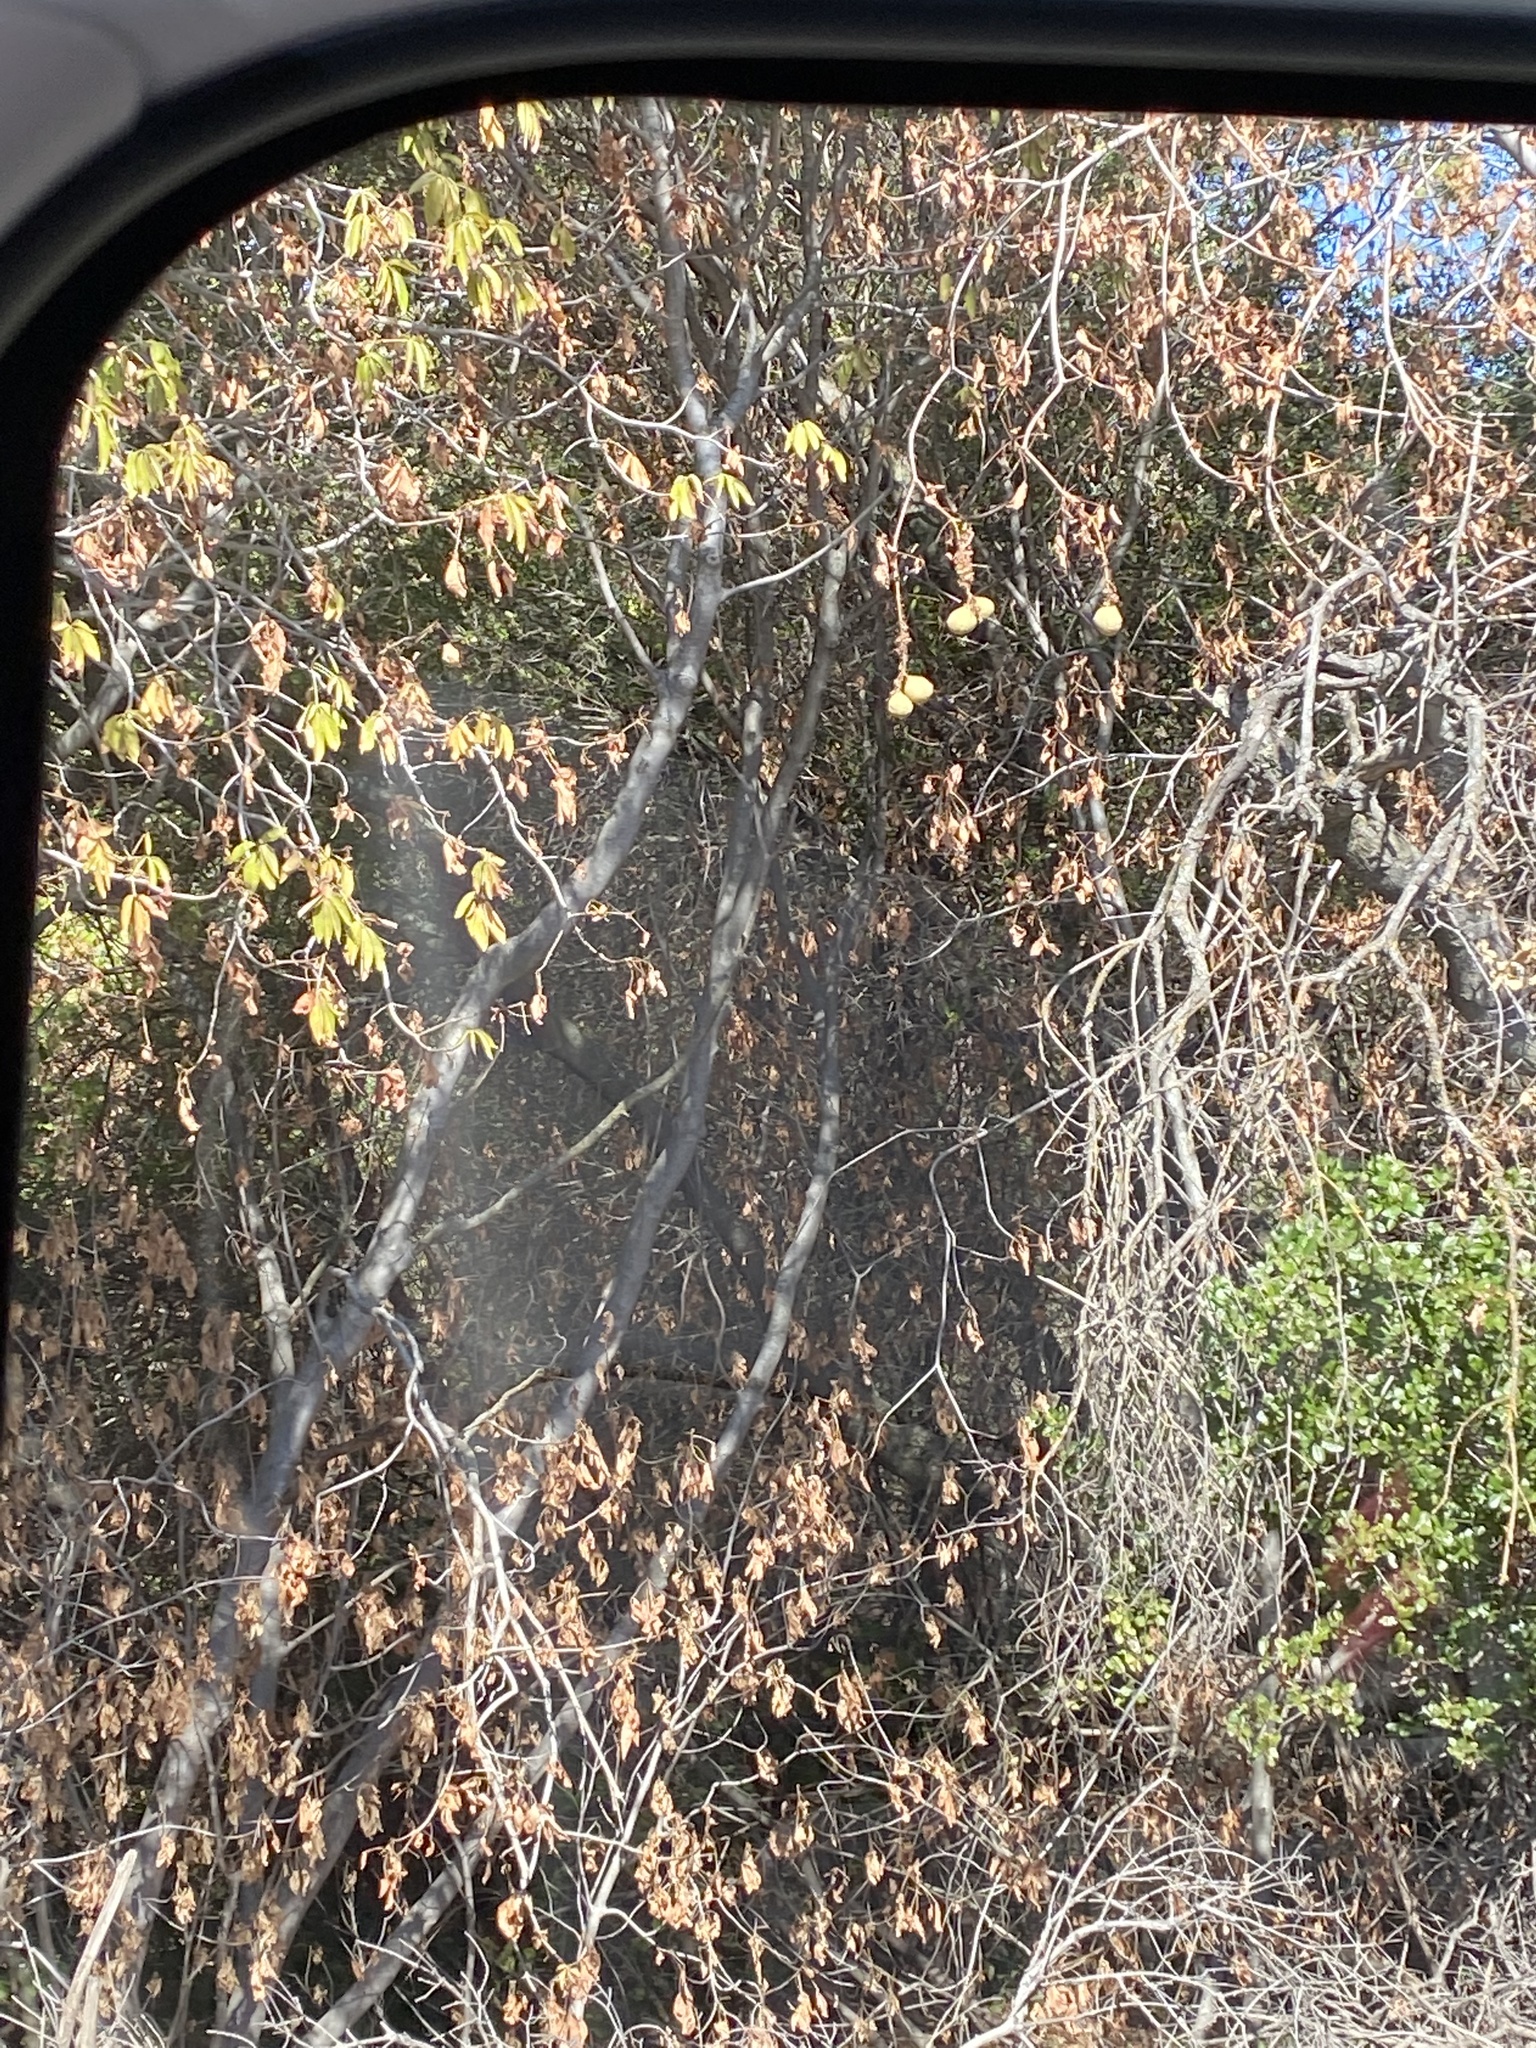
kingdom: Plantae
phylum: Tracheophyta
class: Magnoliopsida
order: Sapindales
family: Sapindaceae
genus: Aesculus
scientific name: Aesculus californica
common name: California buckeye
